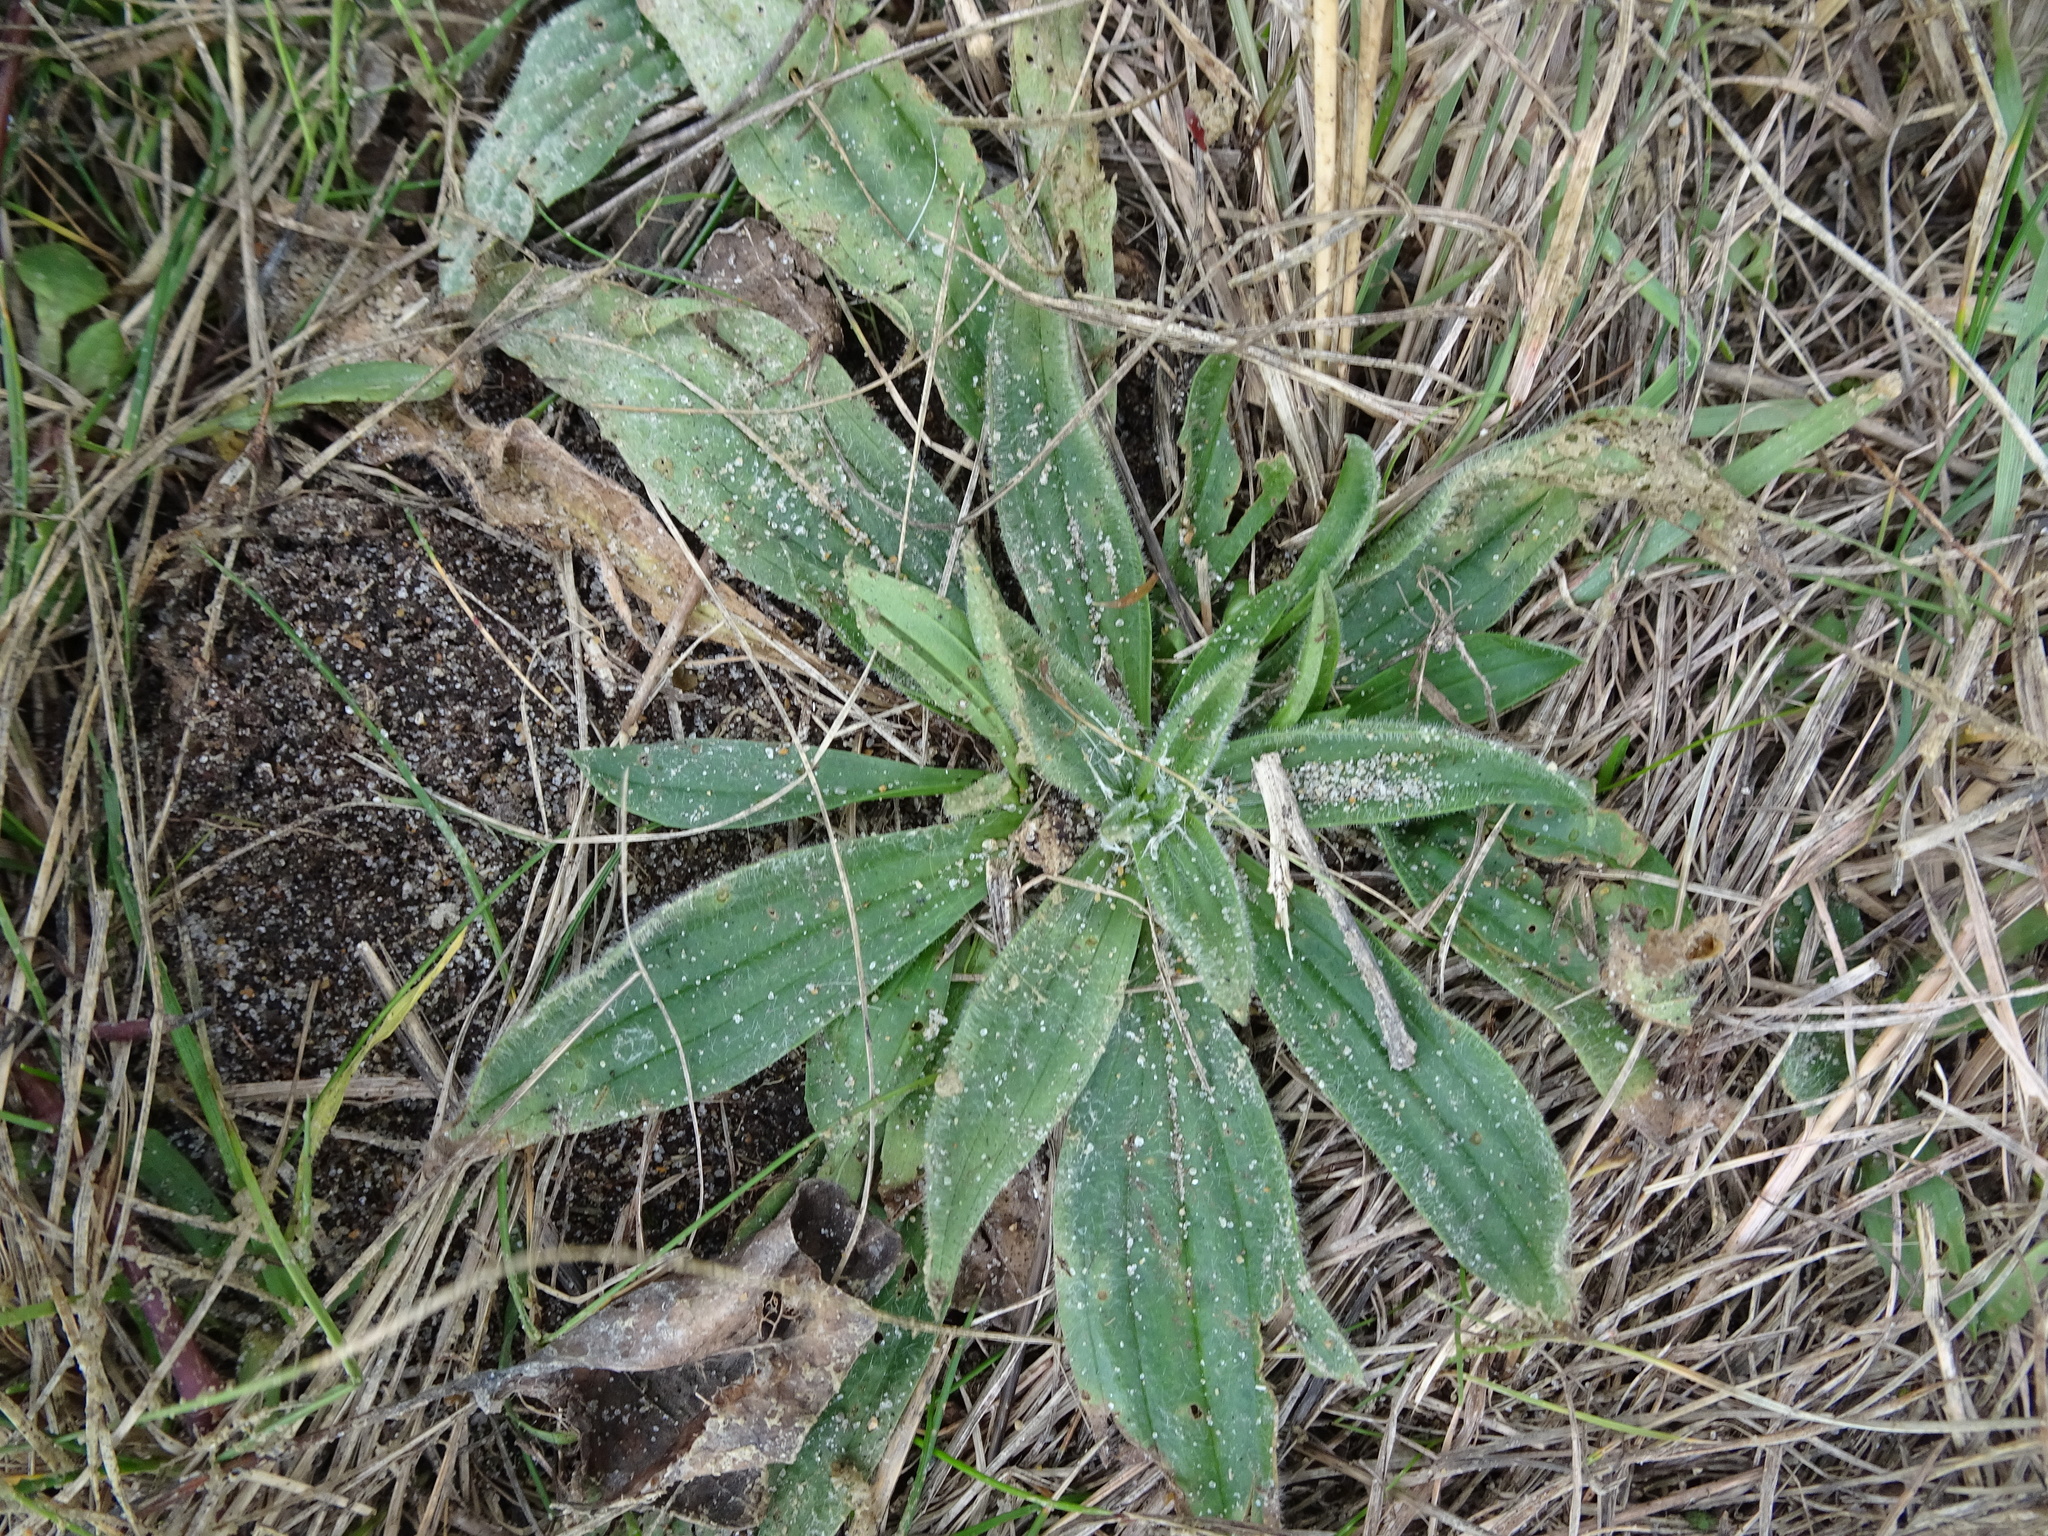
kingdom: Plantae
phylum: Tracheophyta
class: Magnoliopsida
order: Lamiales
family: Plantaginaceae
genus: Plantago
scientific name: Plantago lanceolata
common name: Ribwort plantain
